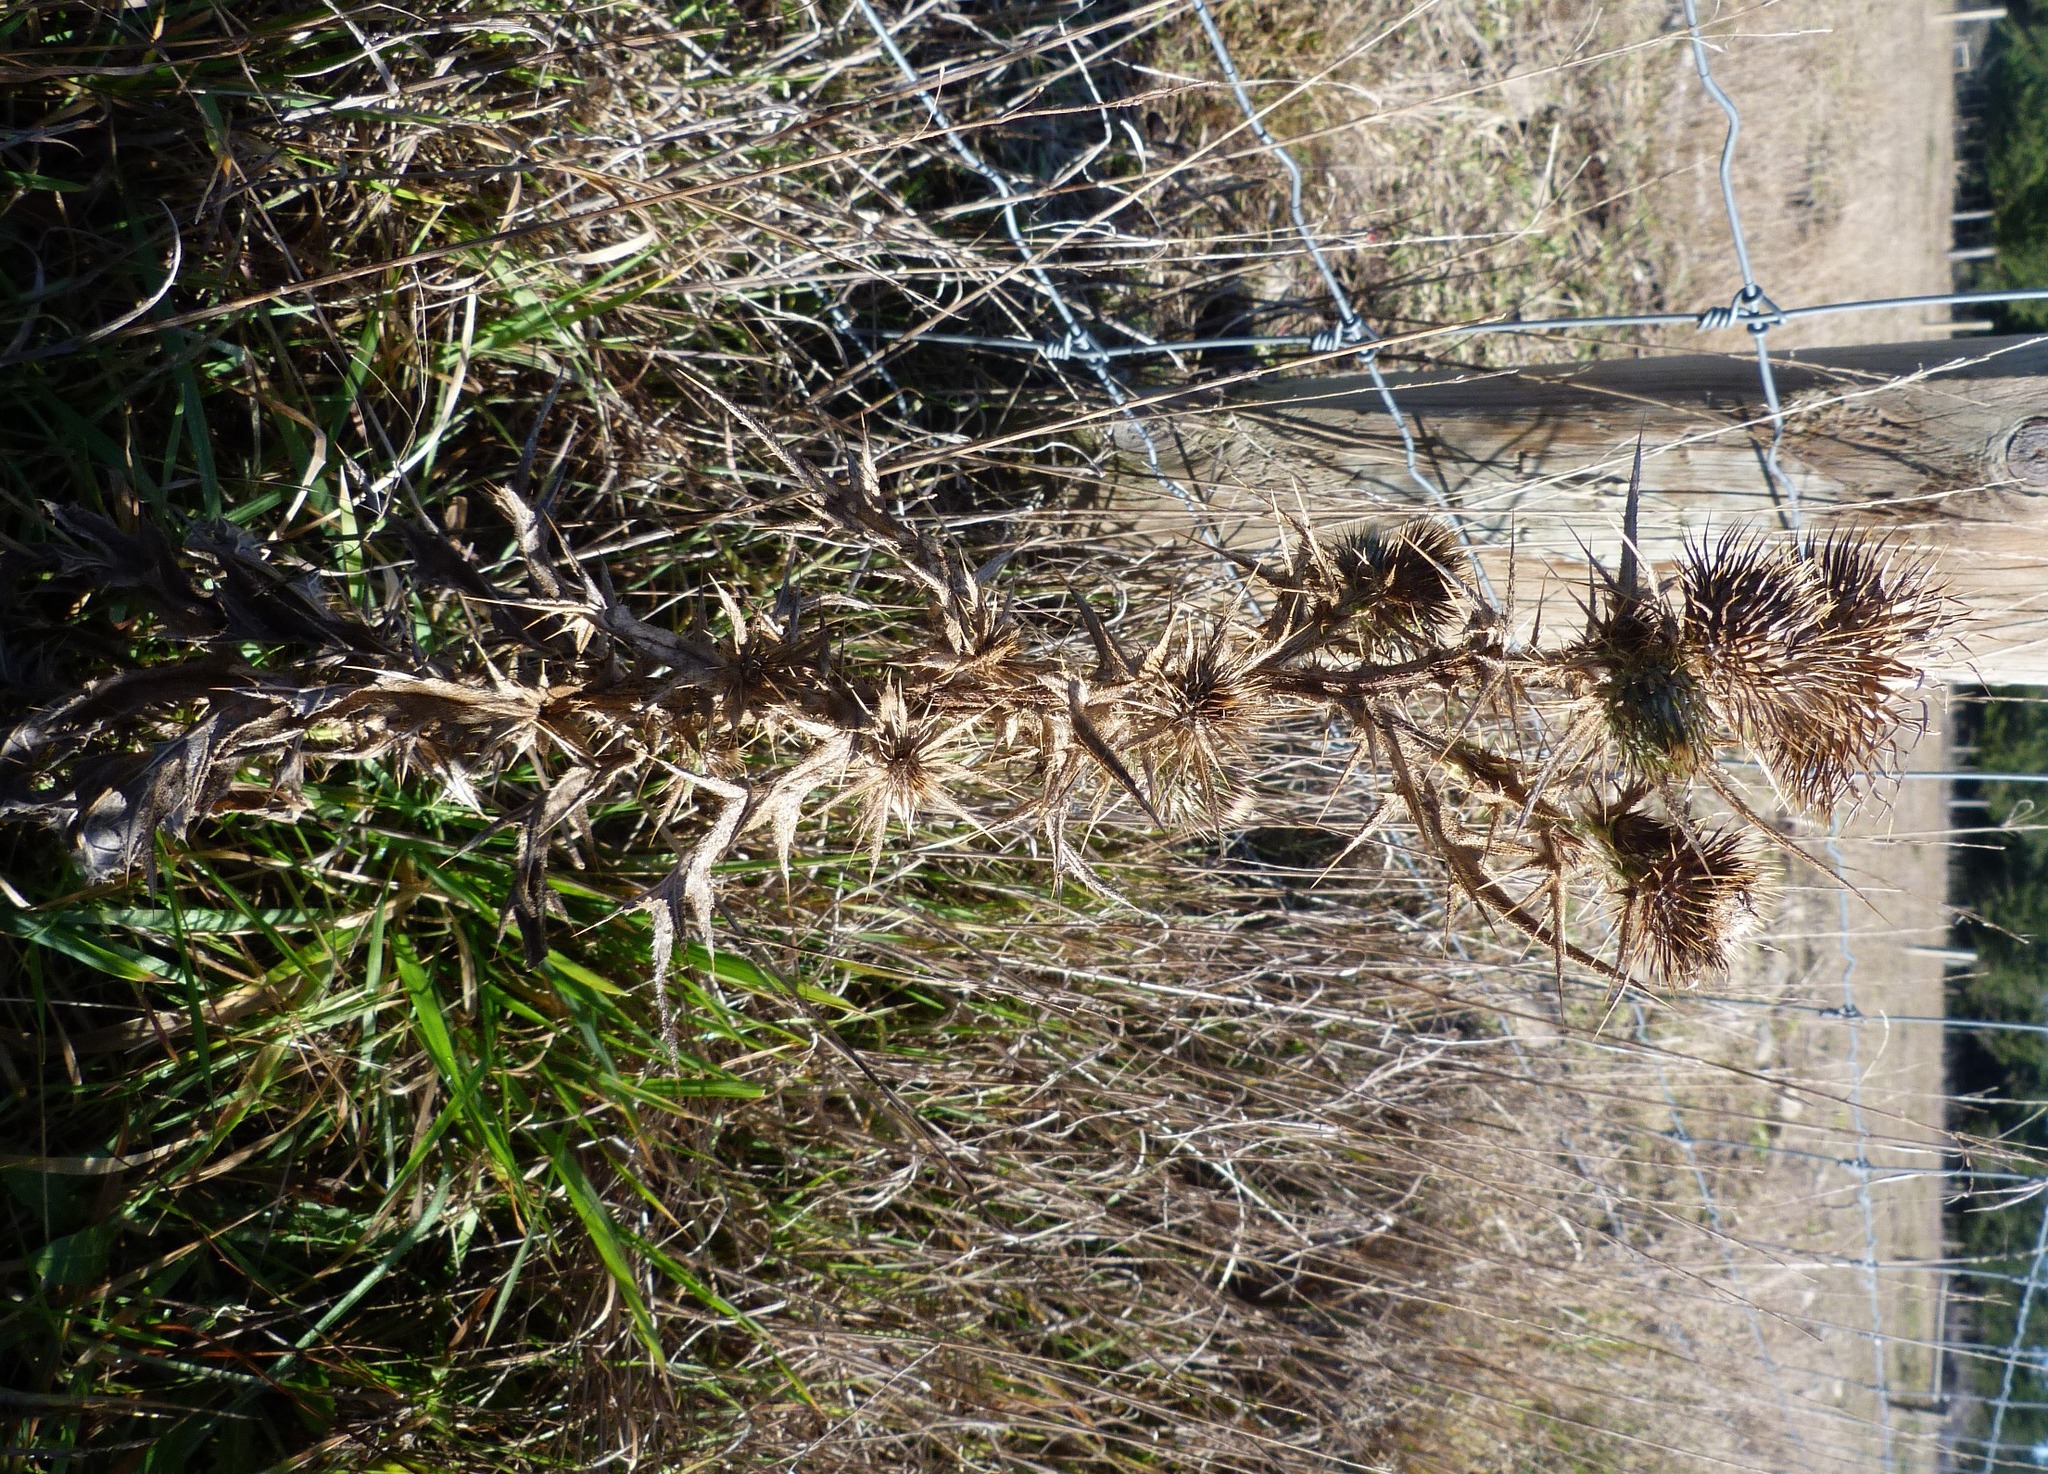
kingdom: Plantae
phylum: Tracheophyta
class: Magnoliopsida
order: Asterales
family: Asteraceae
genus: Cirsium
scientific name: Cirsium vulgare
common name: Bull thistle
